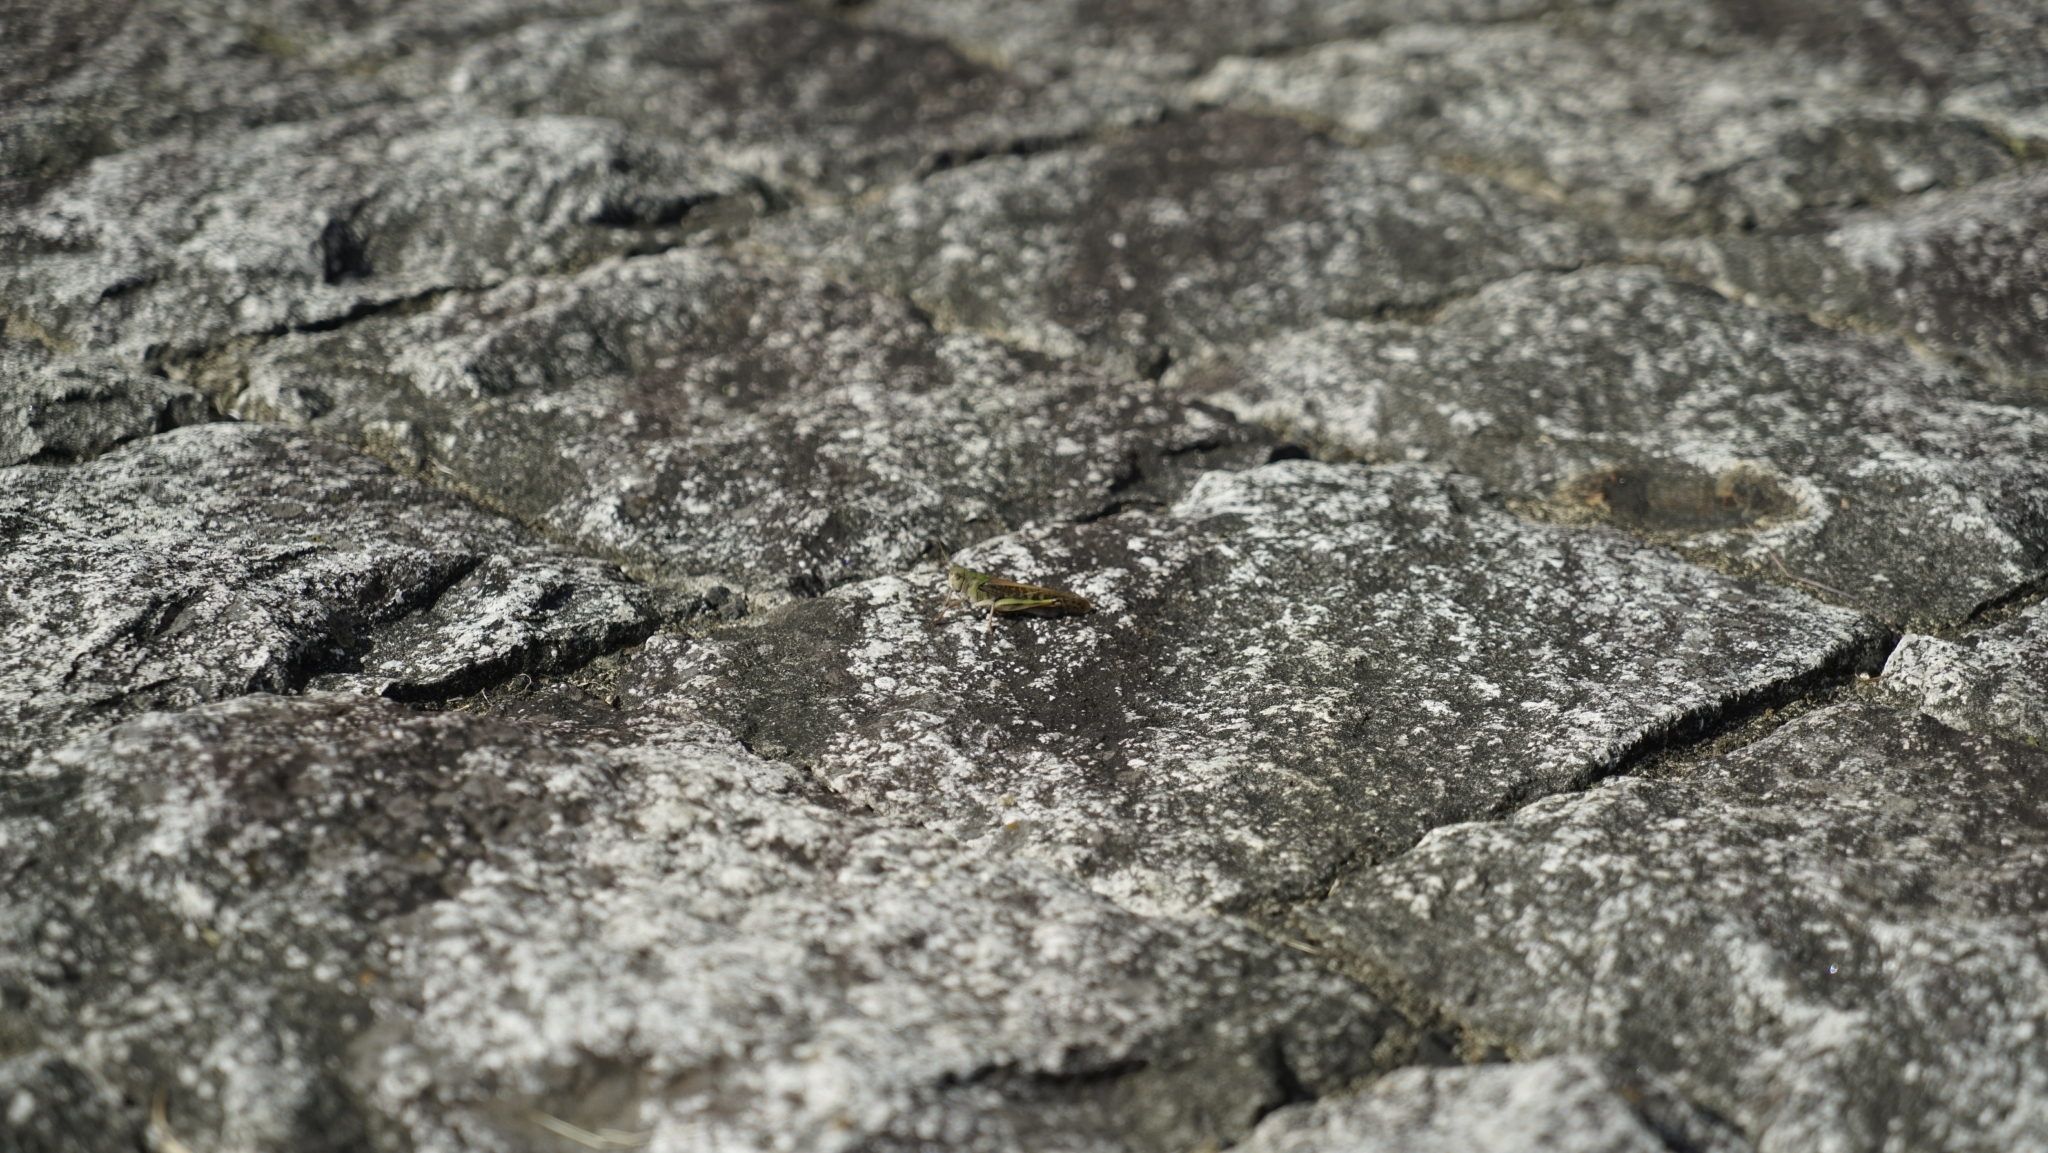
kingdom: Animalia
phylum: Arthropoda
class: Insecta
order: Orthoptera
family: Acrididae
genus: Locusta
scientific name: Locusta migratoria
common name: Migratory locust
